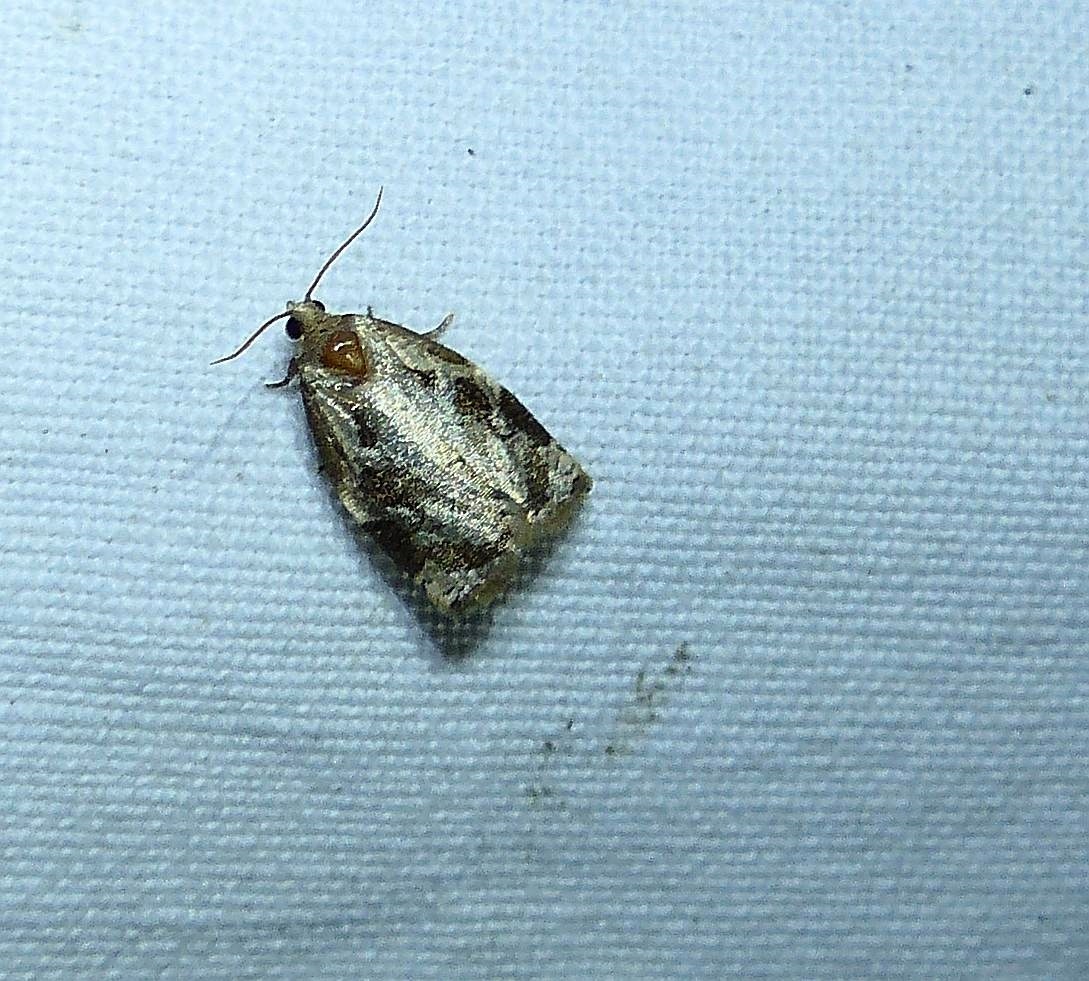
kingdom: Animalia
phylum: Arthropoda
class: Insecta
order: Lepidoptera
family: Tortricidae
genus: Archips
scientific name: Archips grisea
